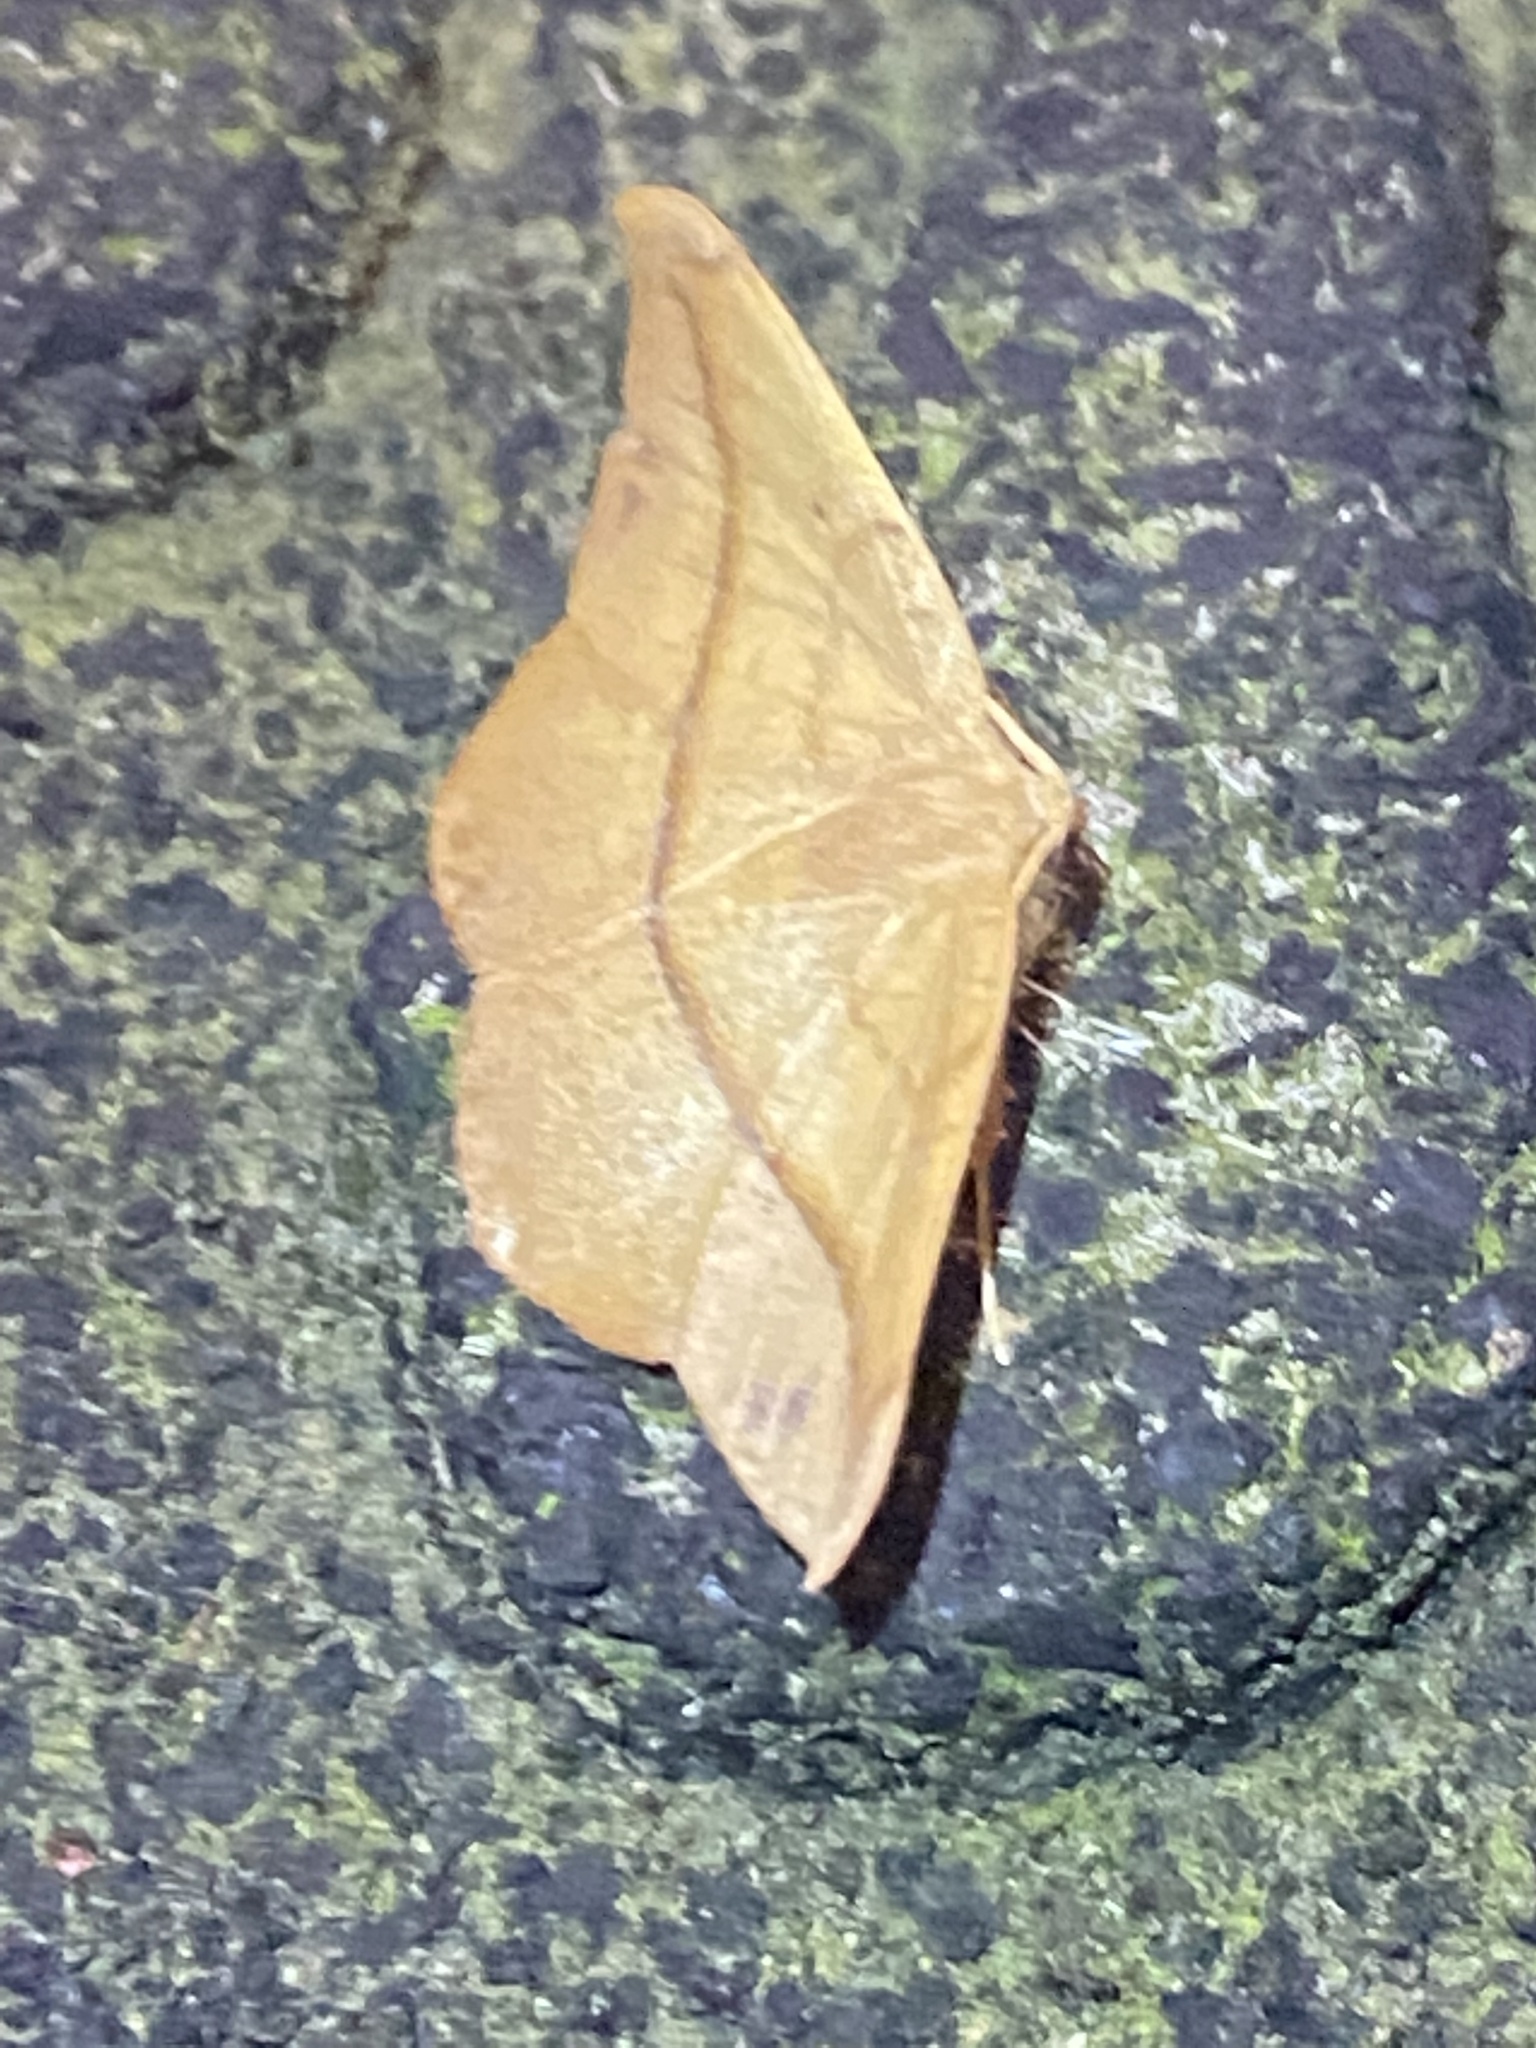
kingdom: Animalia
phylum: Arthropoda
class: Insecta
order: Lepidoptera
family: Geometridae
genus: Patalene
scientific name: Patalene olyzonaria
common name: Juniper geometer moth
